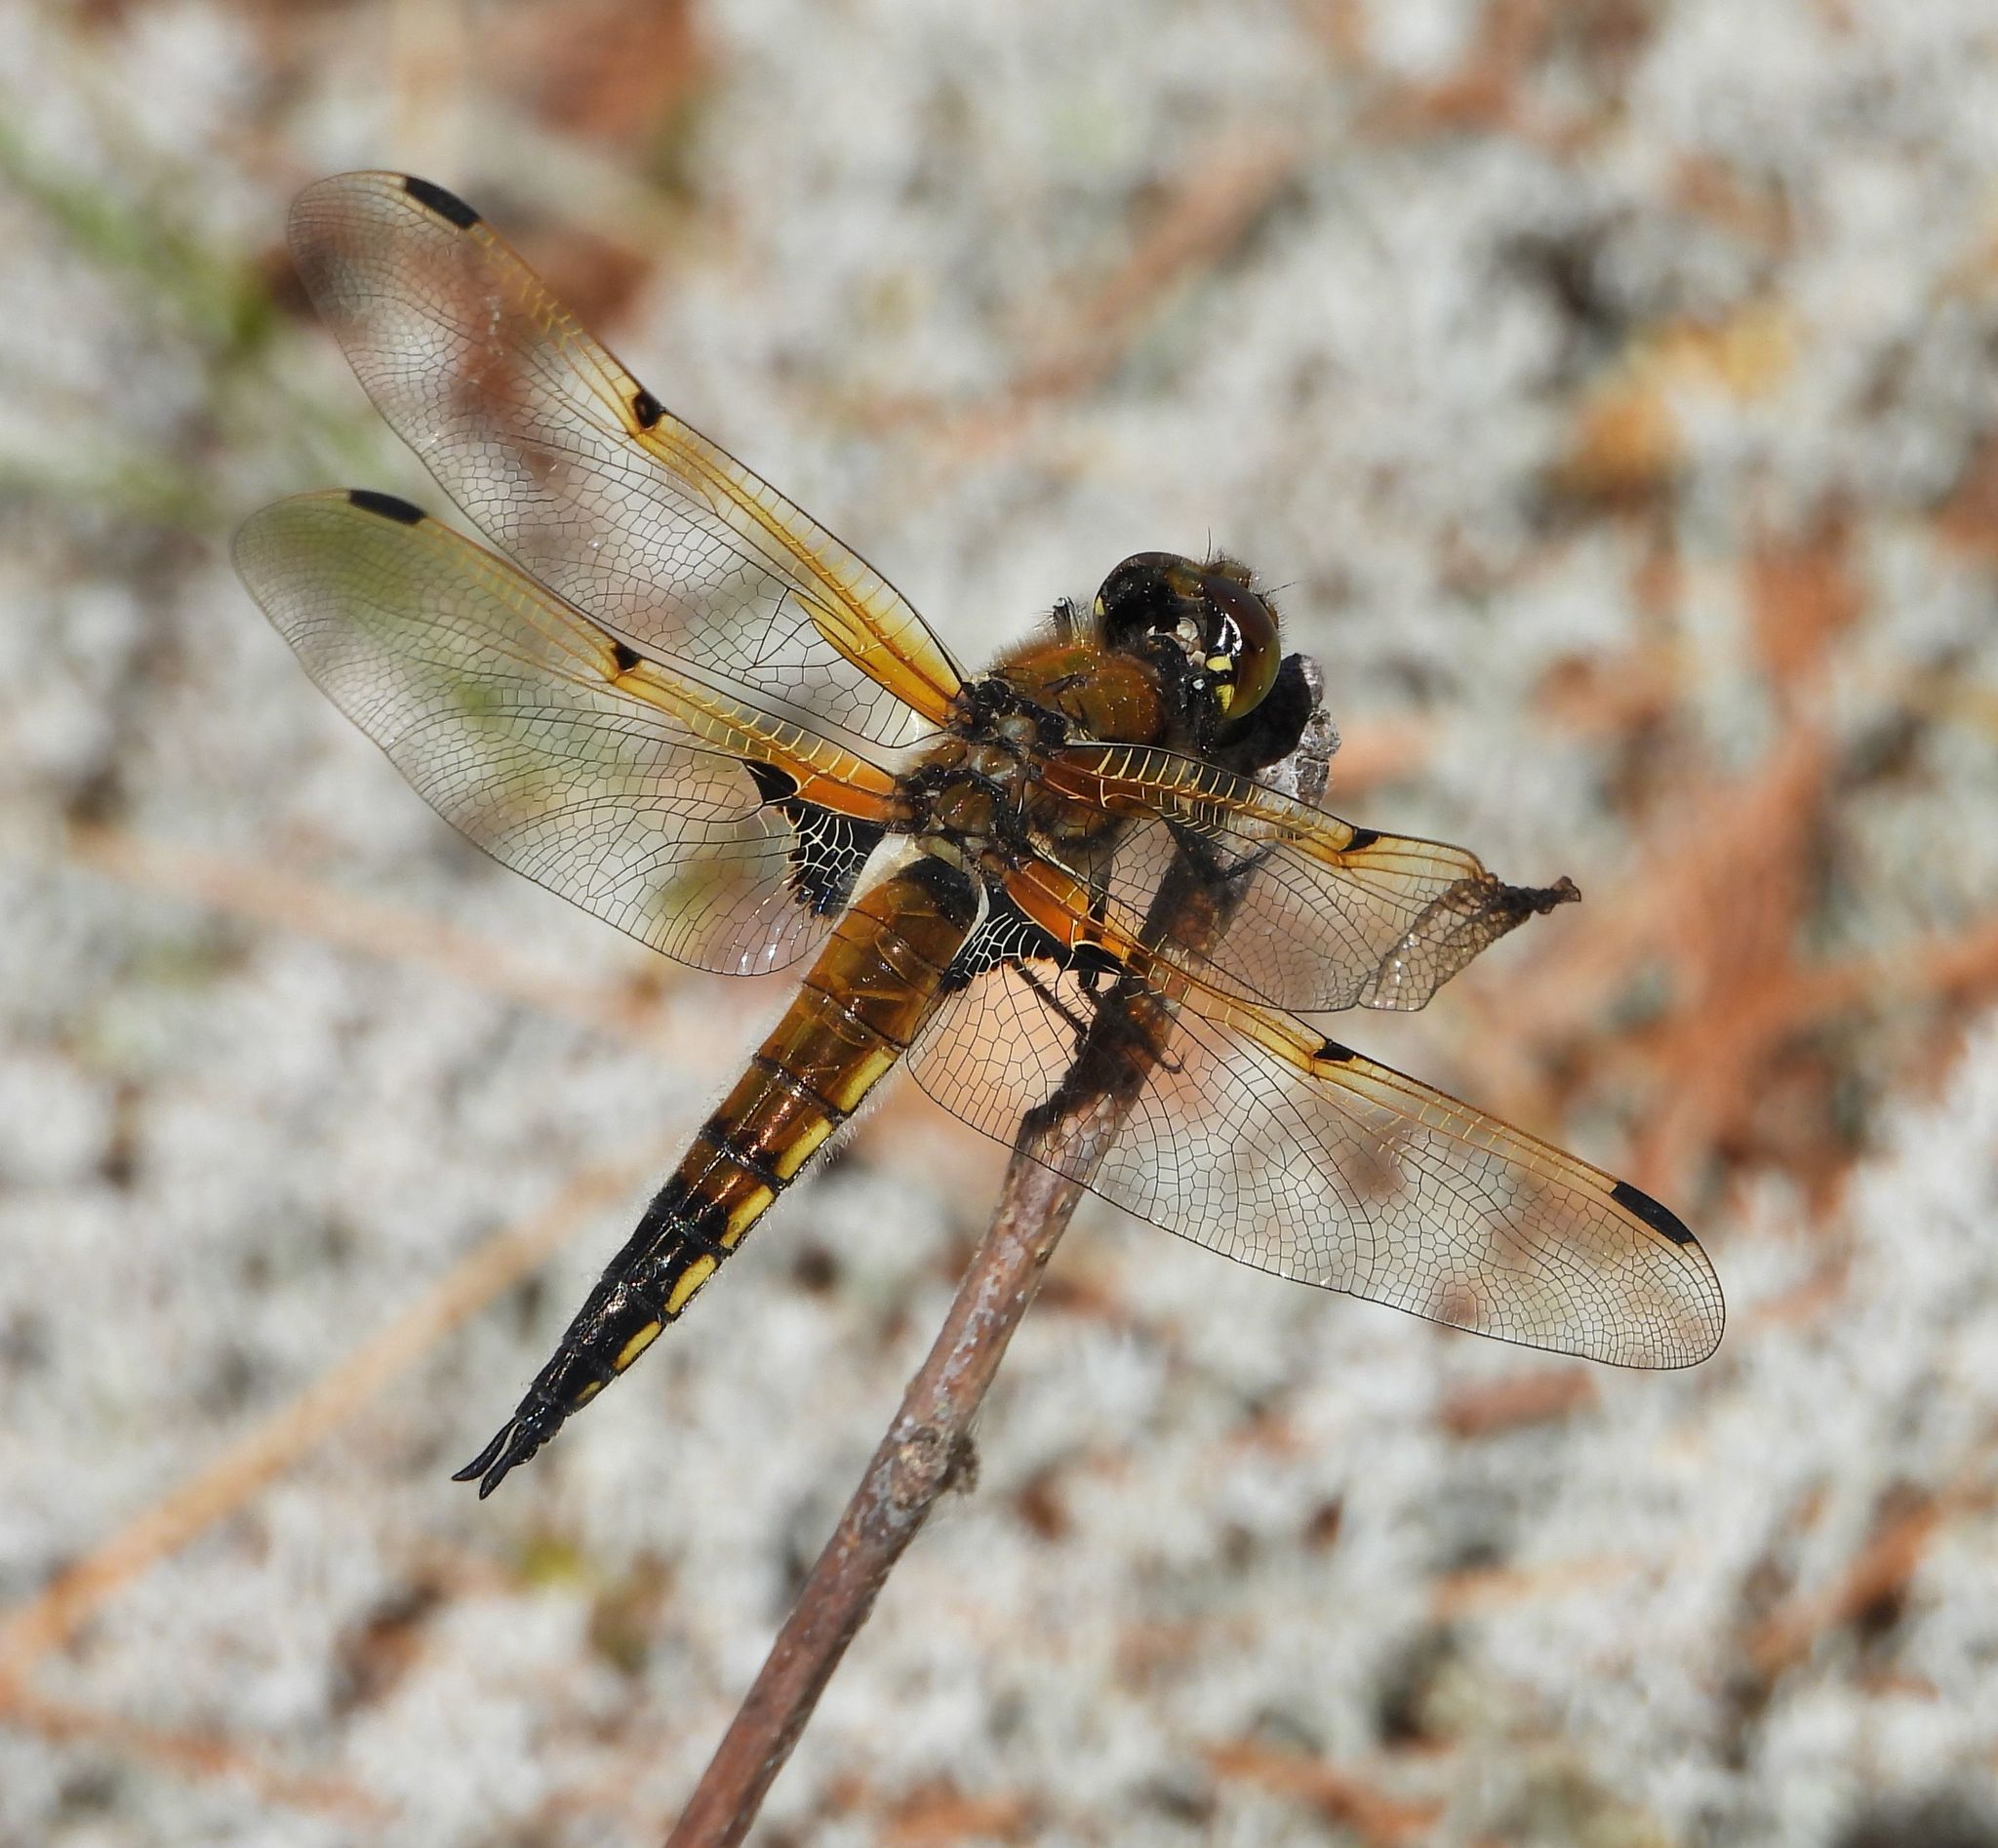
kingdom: Animalia
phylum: Arthropoda
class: Insecta
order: Odonata
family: Libellulidae
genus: Libellula
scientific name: Libellula quadrimaculata
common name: Four-spotted chaser
